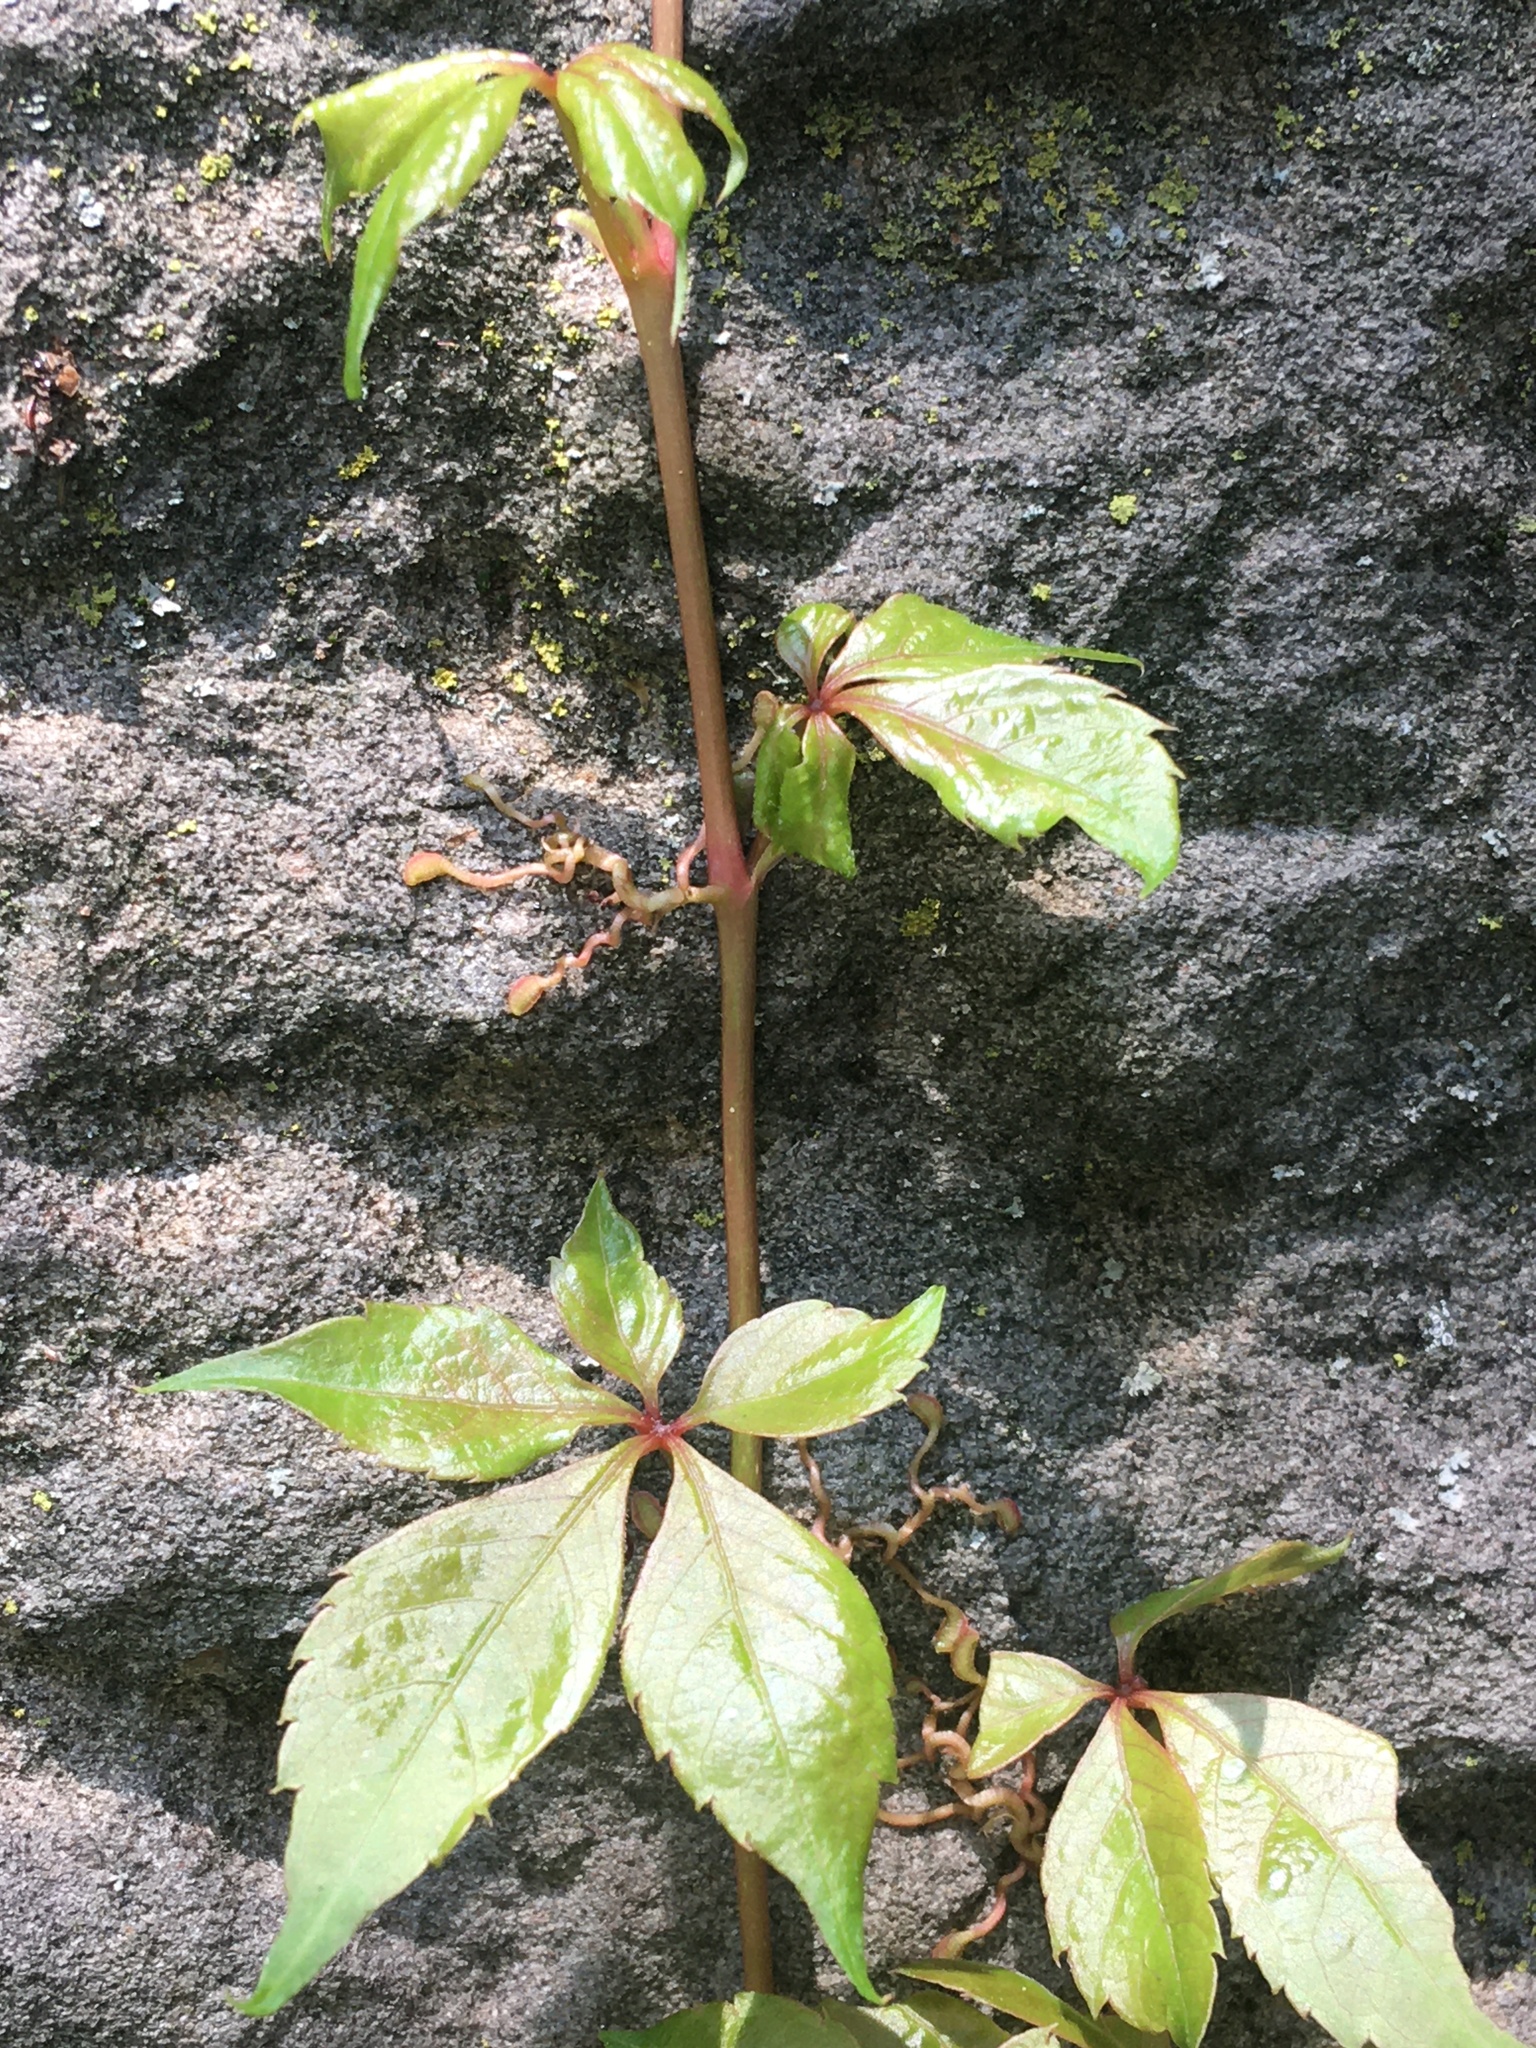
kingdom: Plantae
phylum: Tracheophyta
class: Magnoliopsida
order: Vitales
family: Vitaceae
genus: Parthenocissus
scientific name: Parthenocissus quinquefolia
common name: Virginia-creeper
